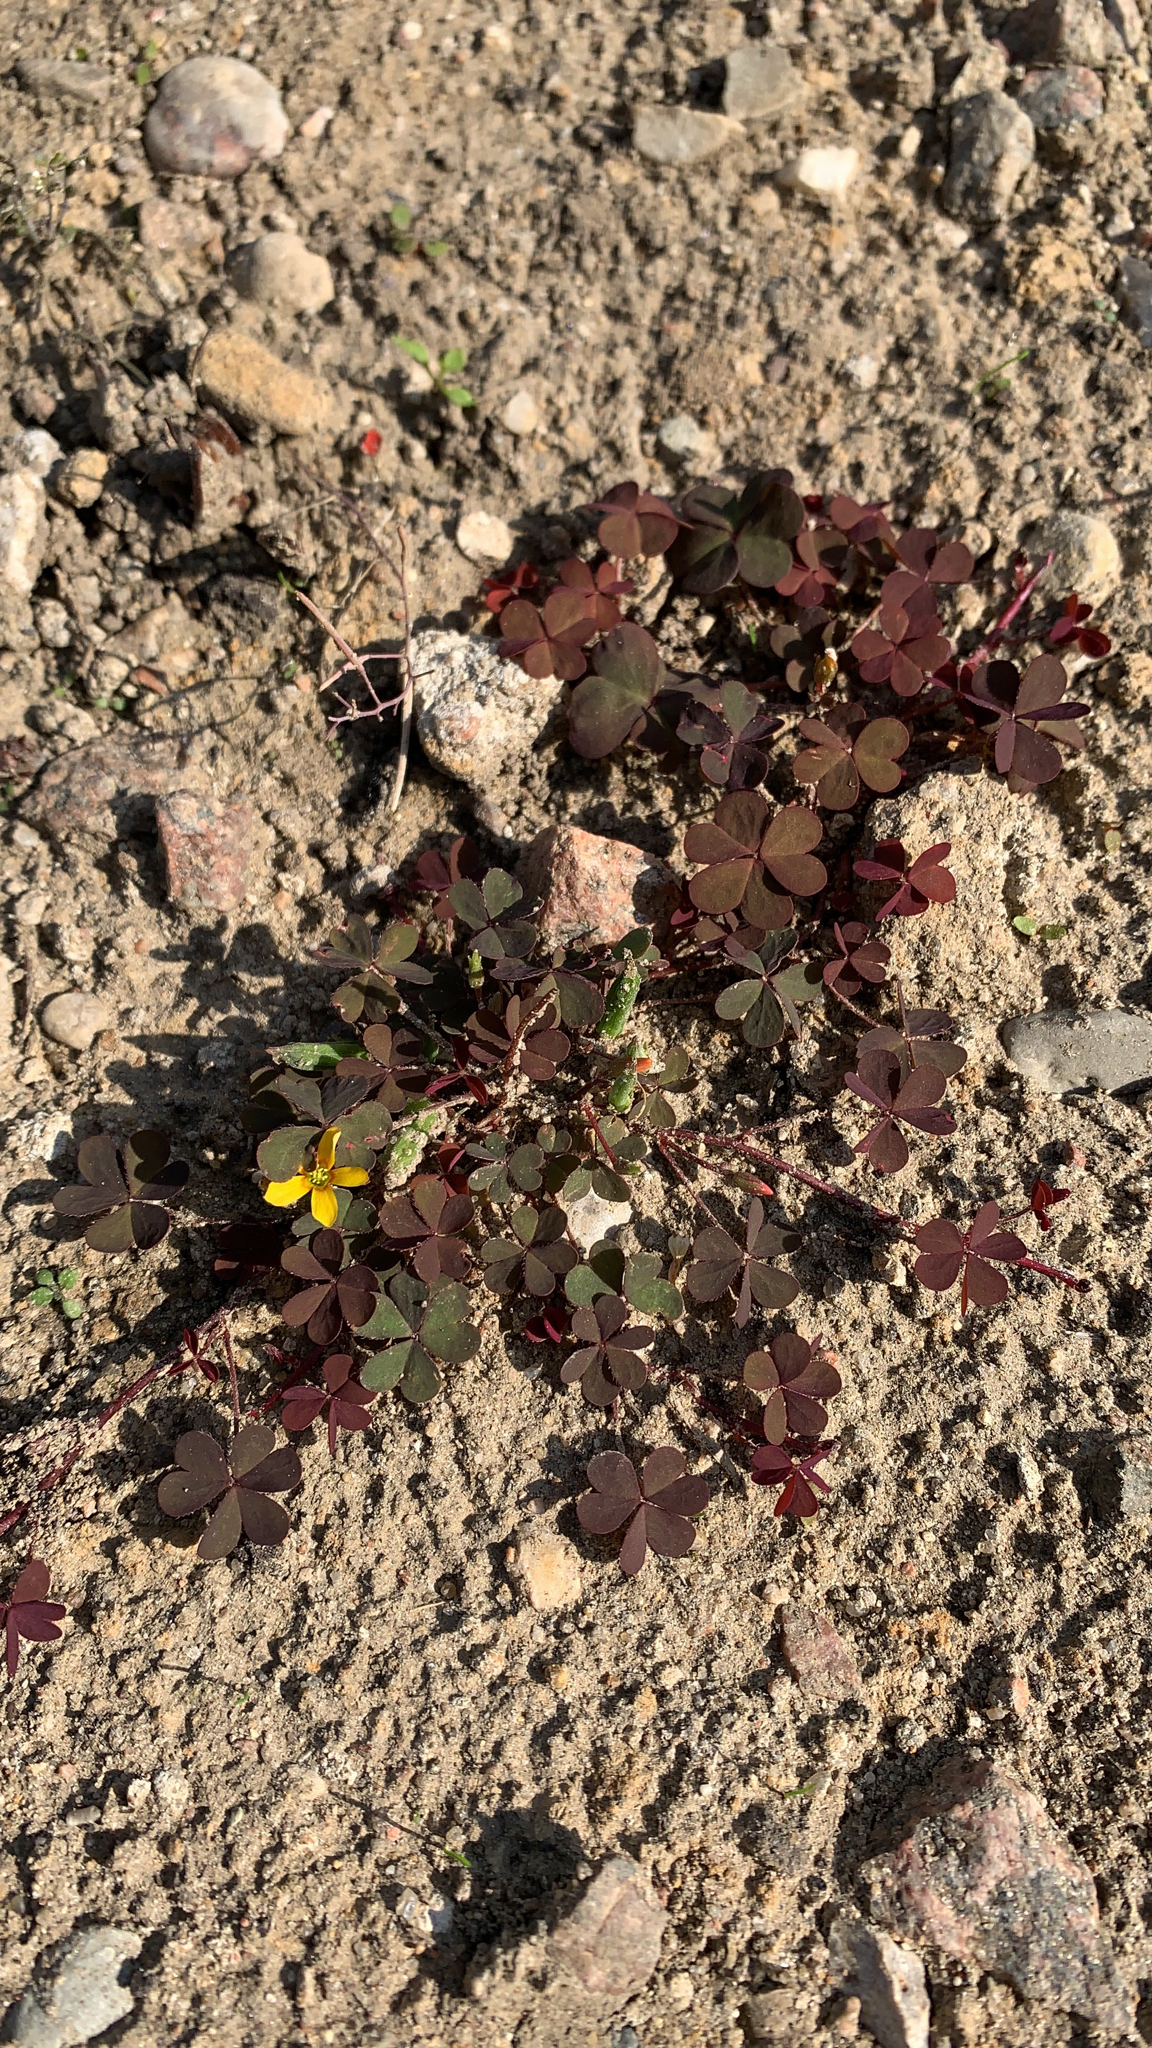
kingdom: Plantae
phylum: Tracheophyta
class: Magnoliopsida
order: Oxalidales
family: Oxalidaceae
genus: Oxalis
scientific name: Oxalis corniculata
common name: Procumbent yellow-sorrel
